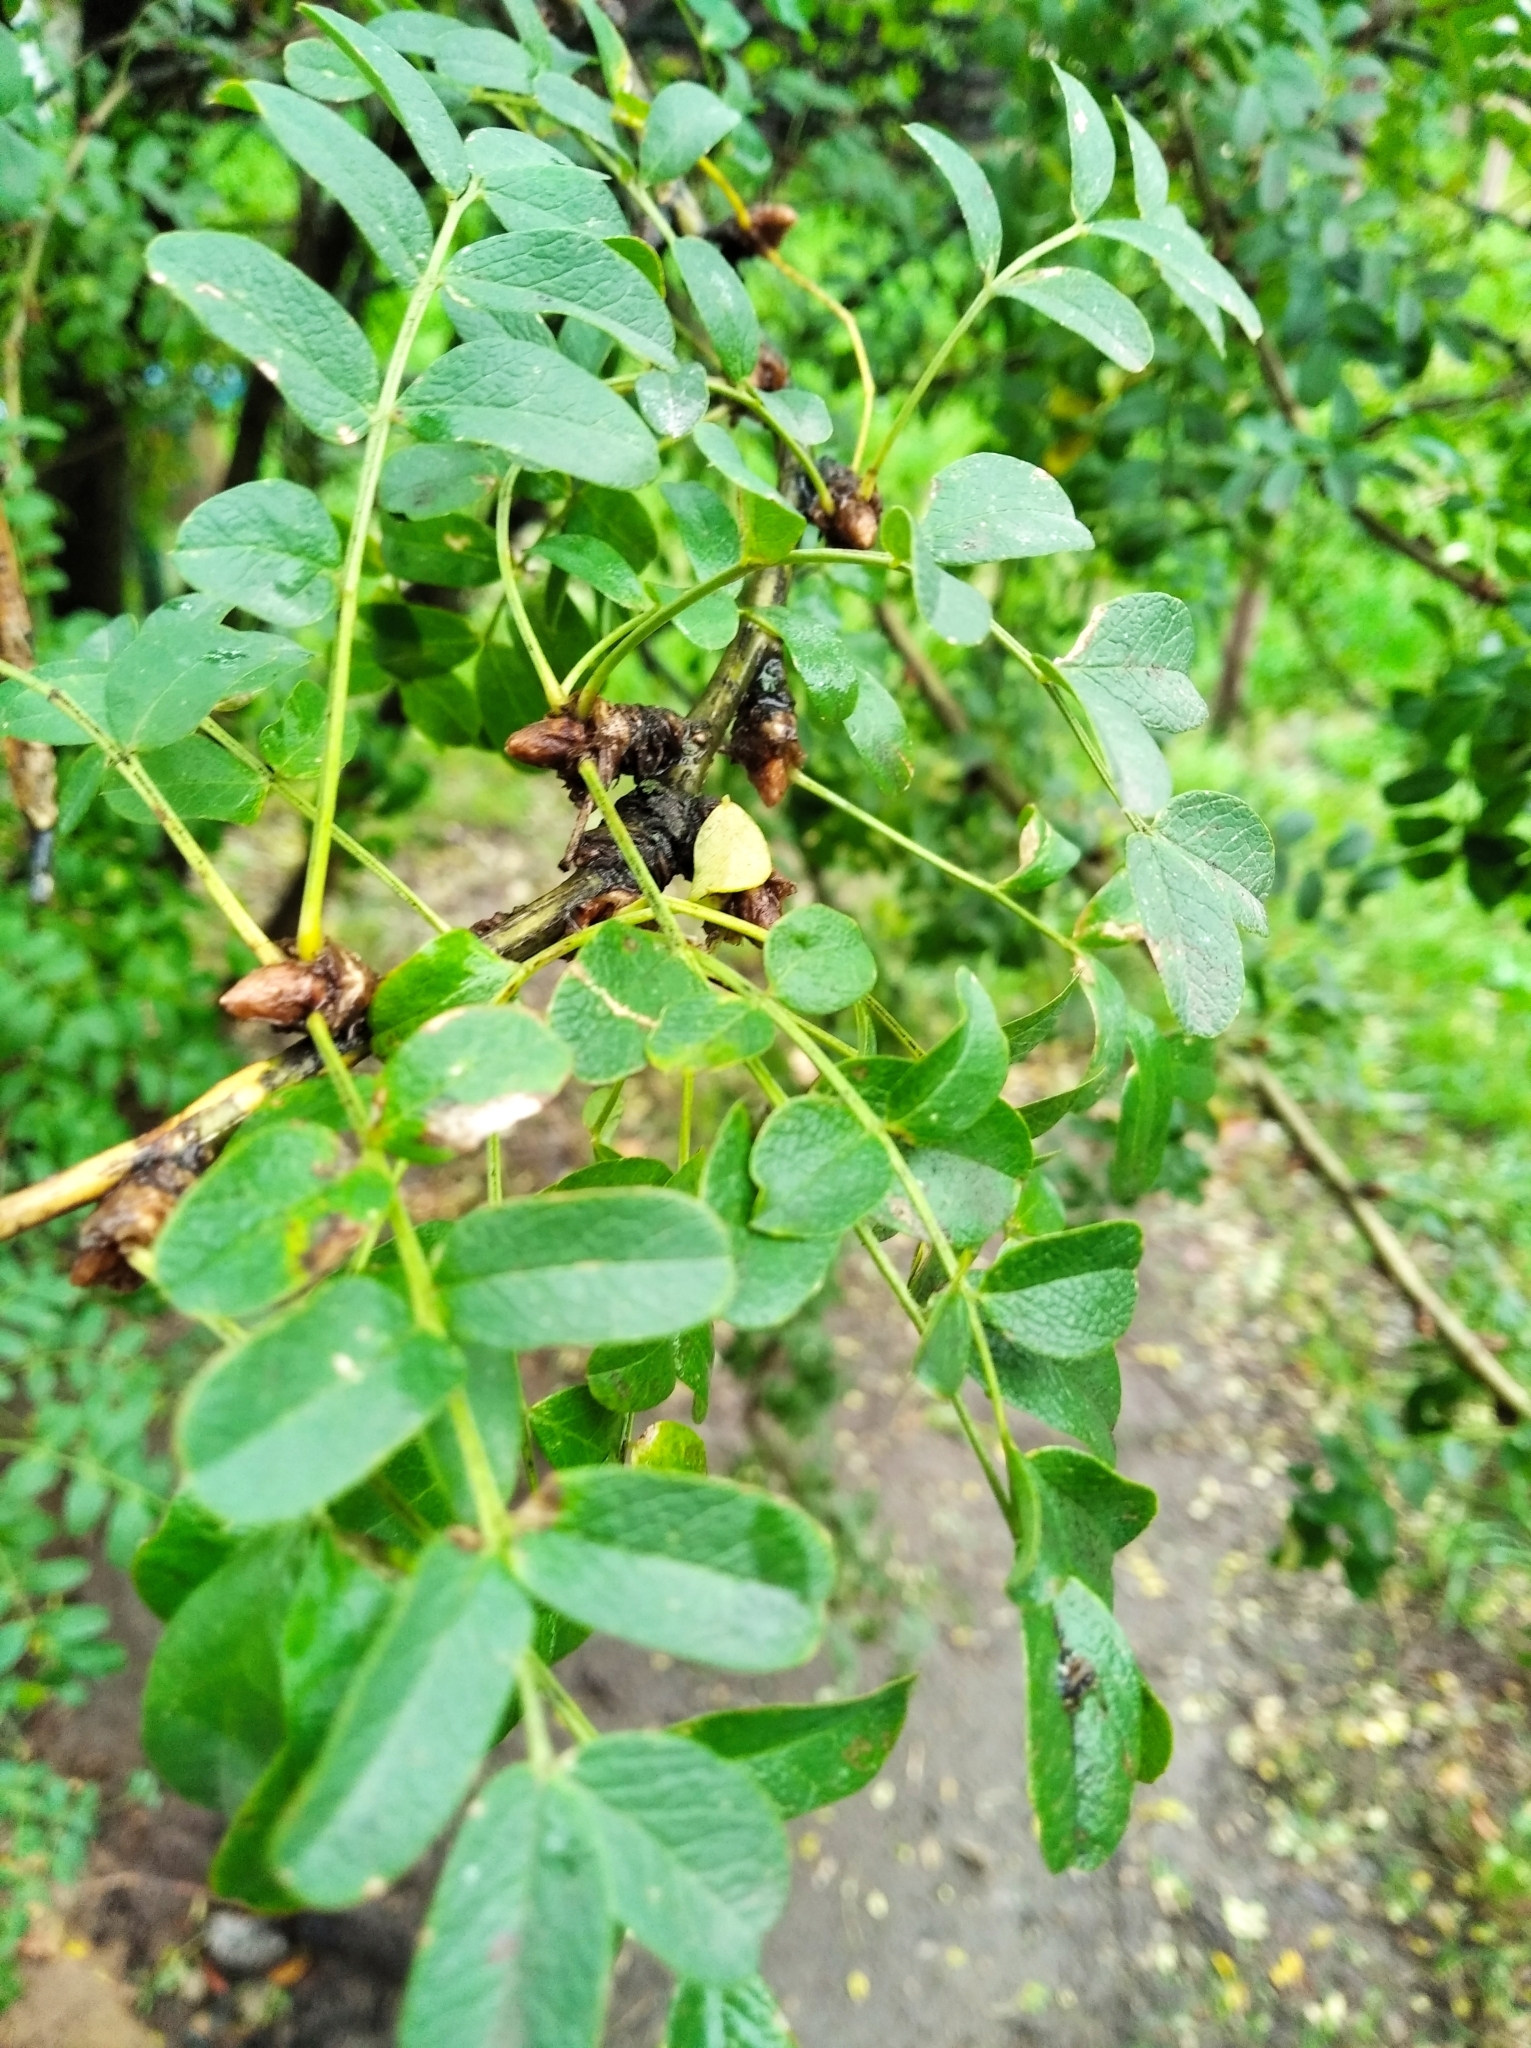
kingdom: Plantae
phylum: Tracheophyta
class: Magnoliopsida
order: Fabales
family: Fabaceae
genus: Caragana
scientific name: Caragana arborescens
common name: Siberian peashrub
